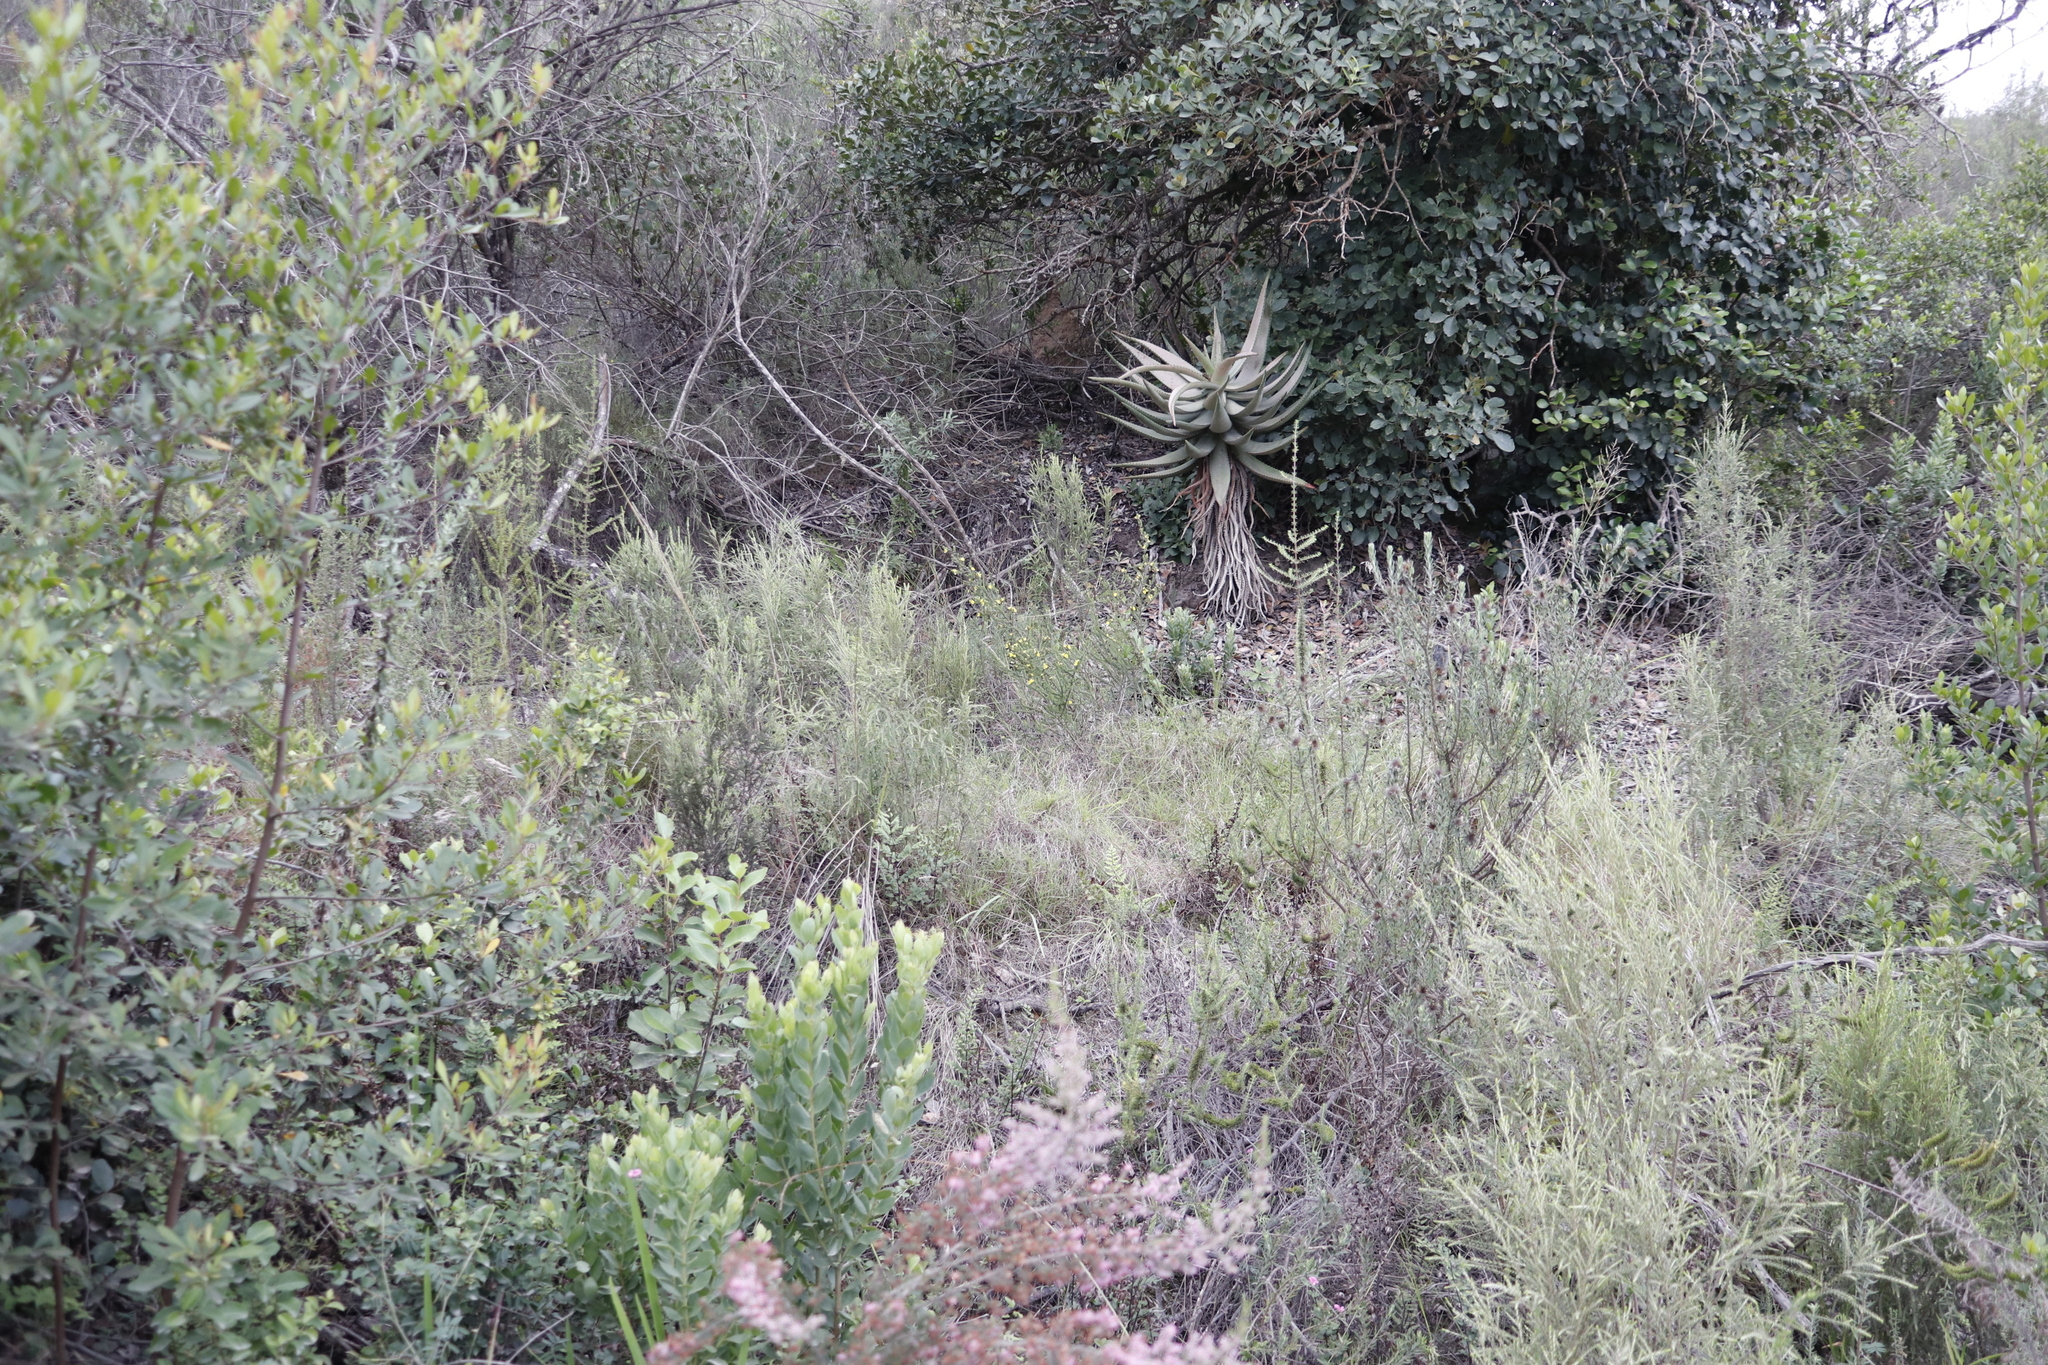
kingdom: Plantae
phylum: Tracheophyta
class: Liliopsida
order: Asparagales
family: Asphodelaceae
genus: Aloe
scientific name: Aloe ferox
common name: Bitter aloe
